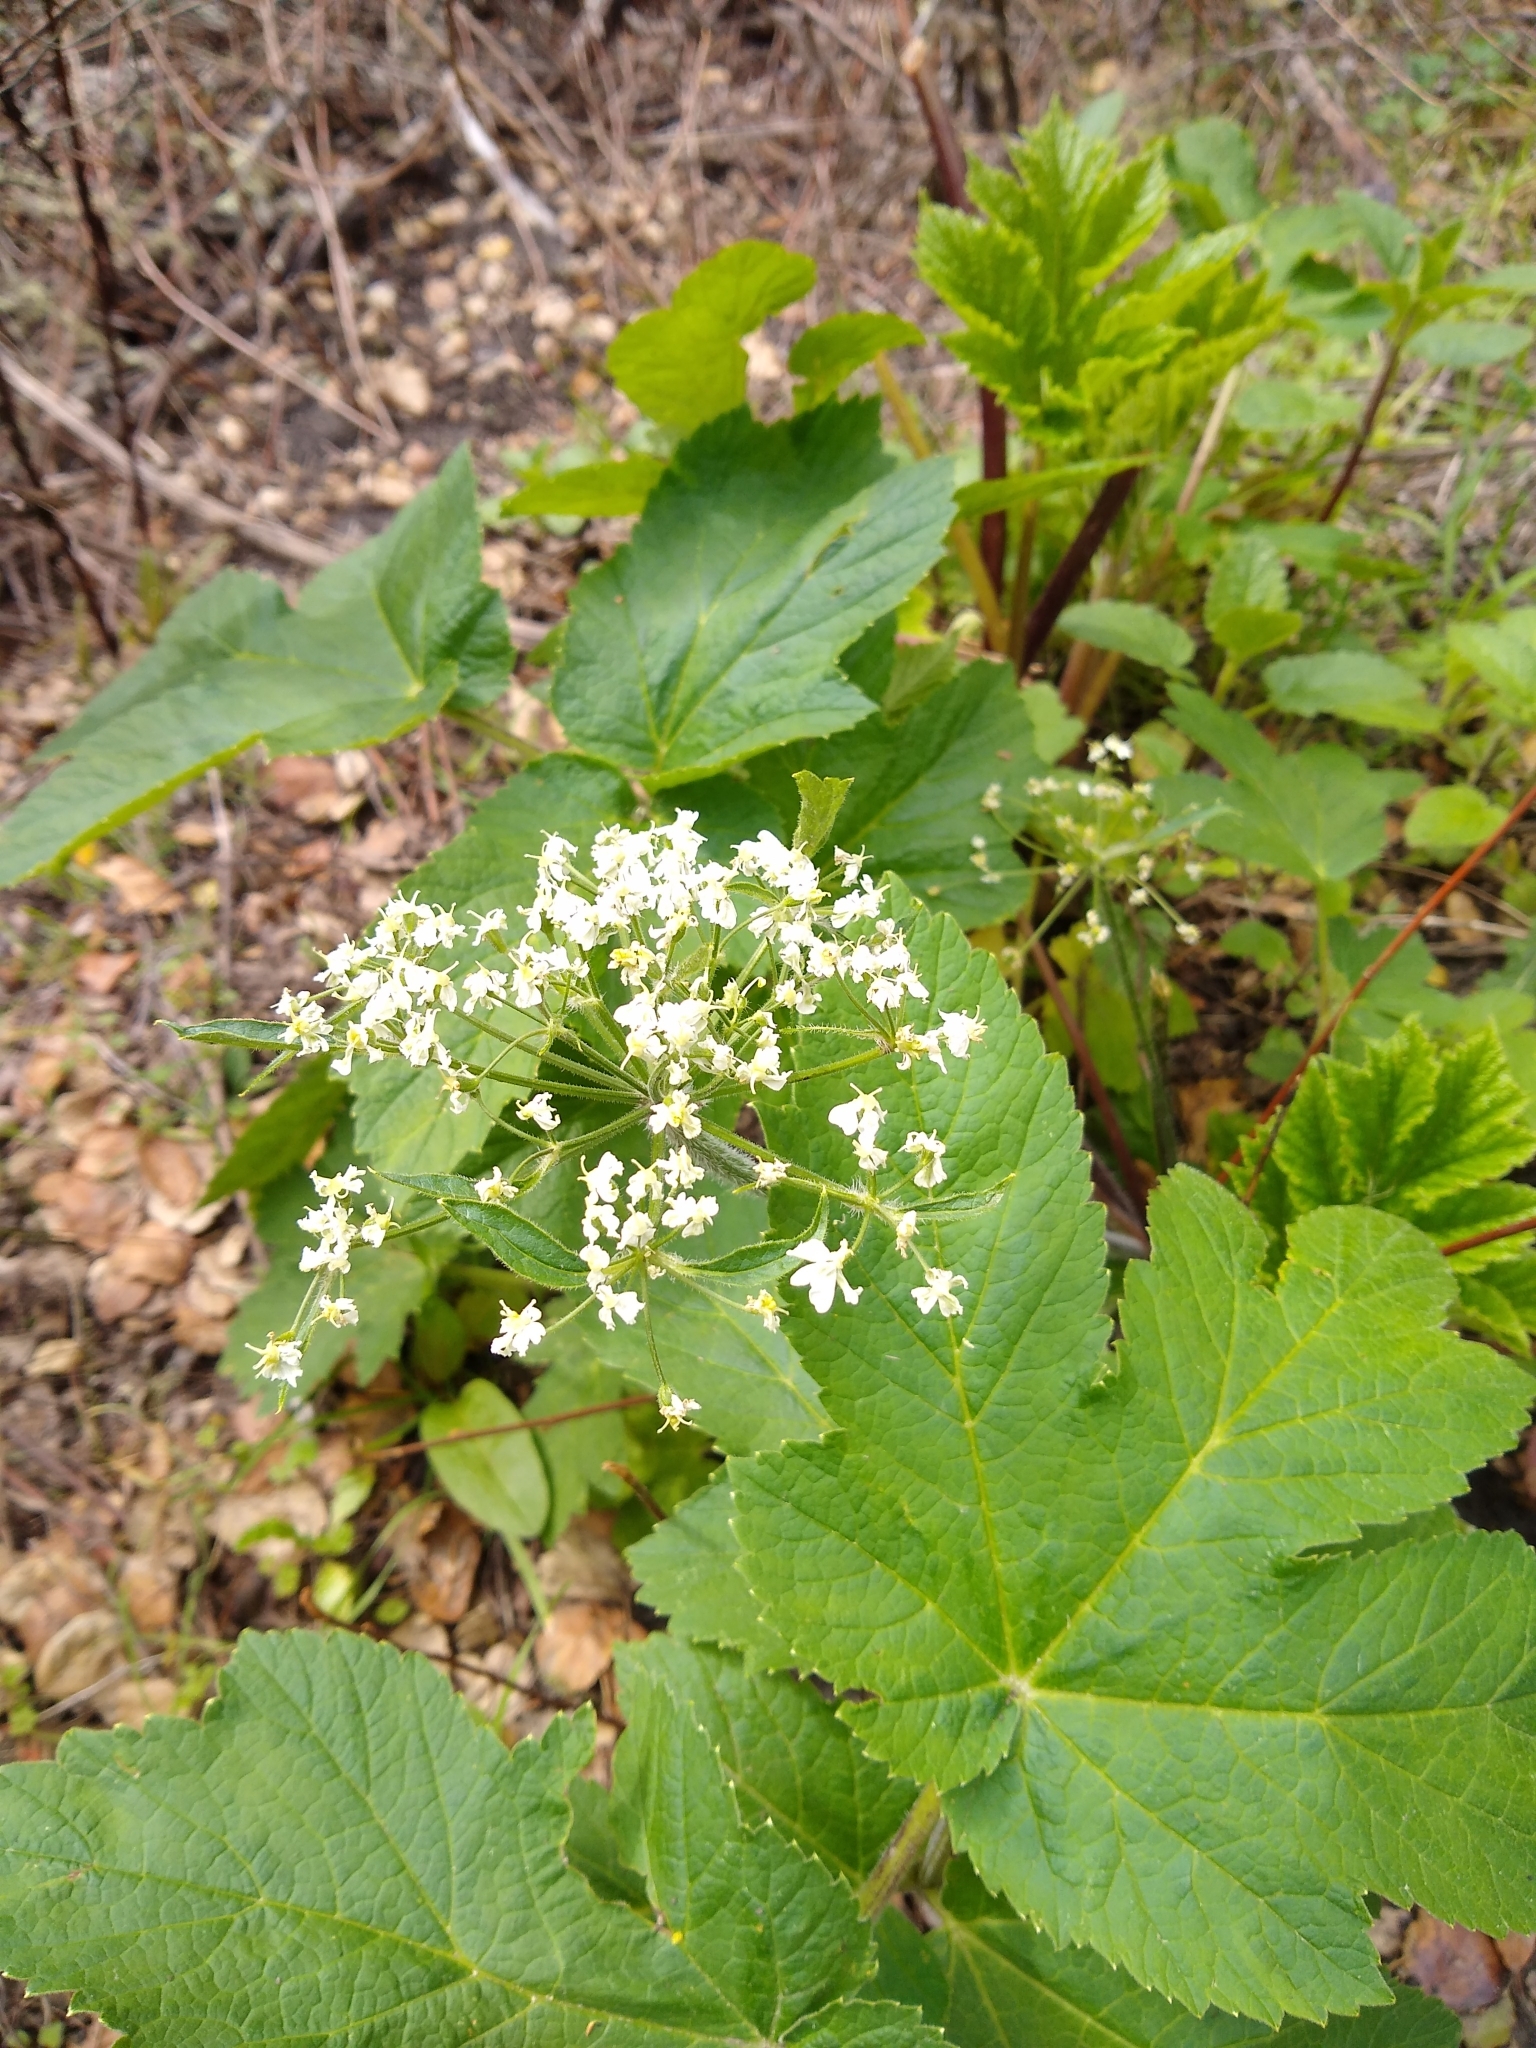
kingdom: Plantae
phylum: Tracheophyta
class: Magnoliopsida
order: Apiales
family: Apiaceae
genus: Heracleum
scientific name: Heracleum maximum
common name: American cow parsnip
